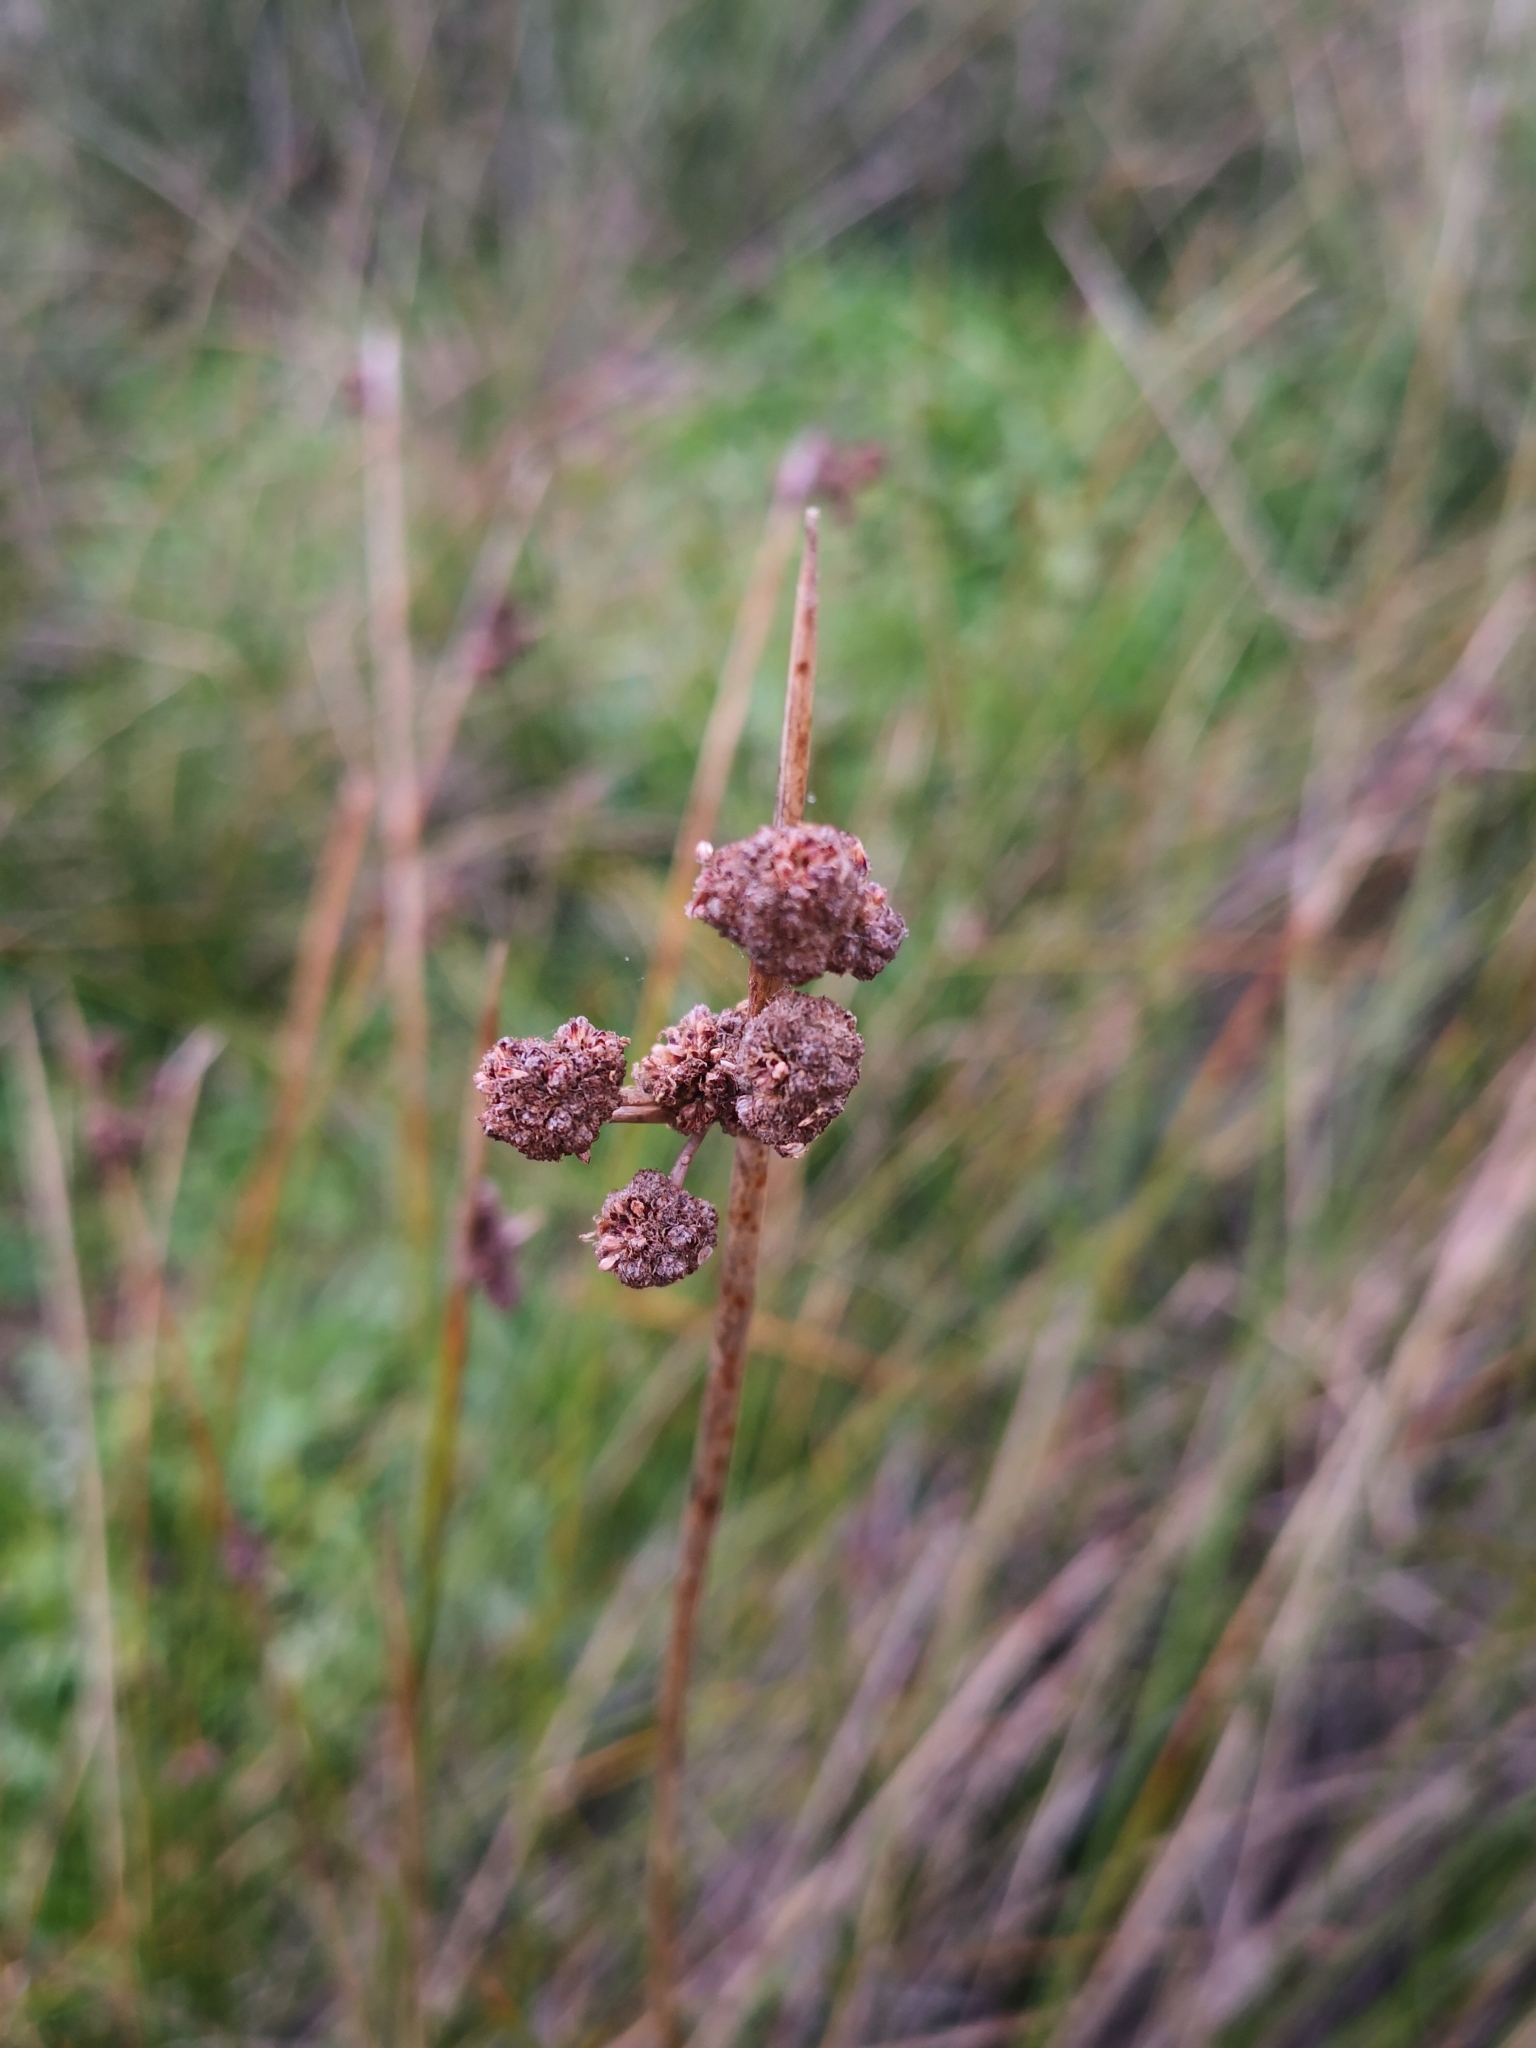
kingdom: Plantae
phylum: Tracheophyta
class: Liliopsida
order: Poales
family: Cyperaceae
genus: Scirpoides
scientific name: Scirpoides holoschoenus
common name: Round-headed club-rush
